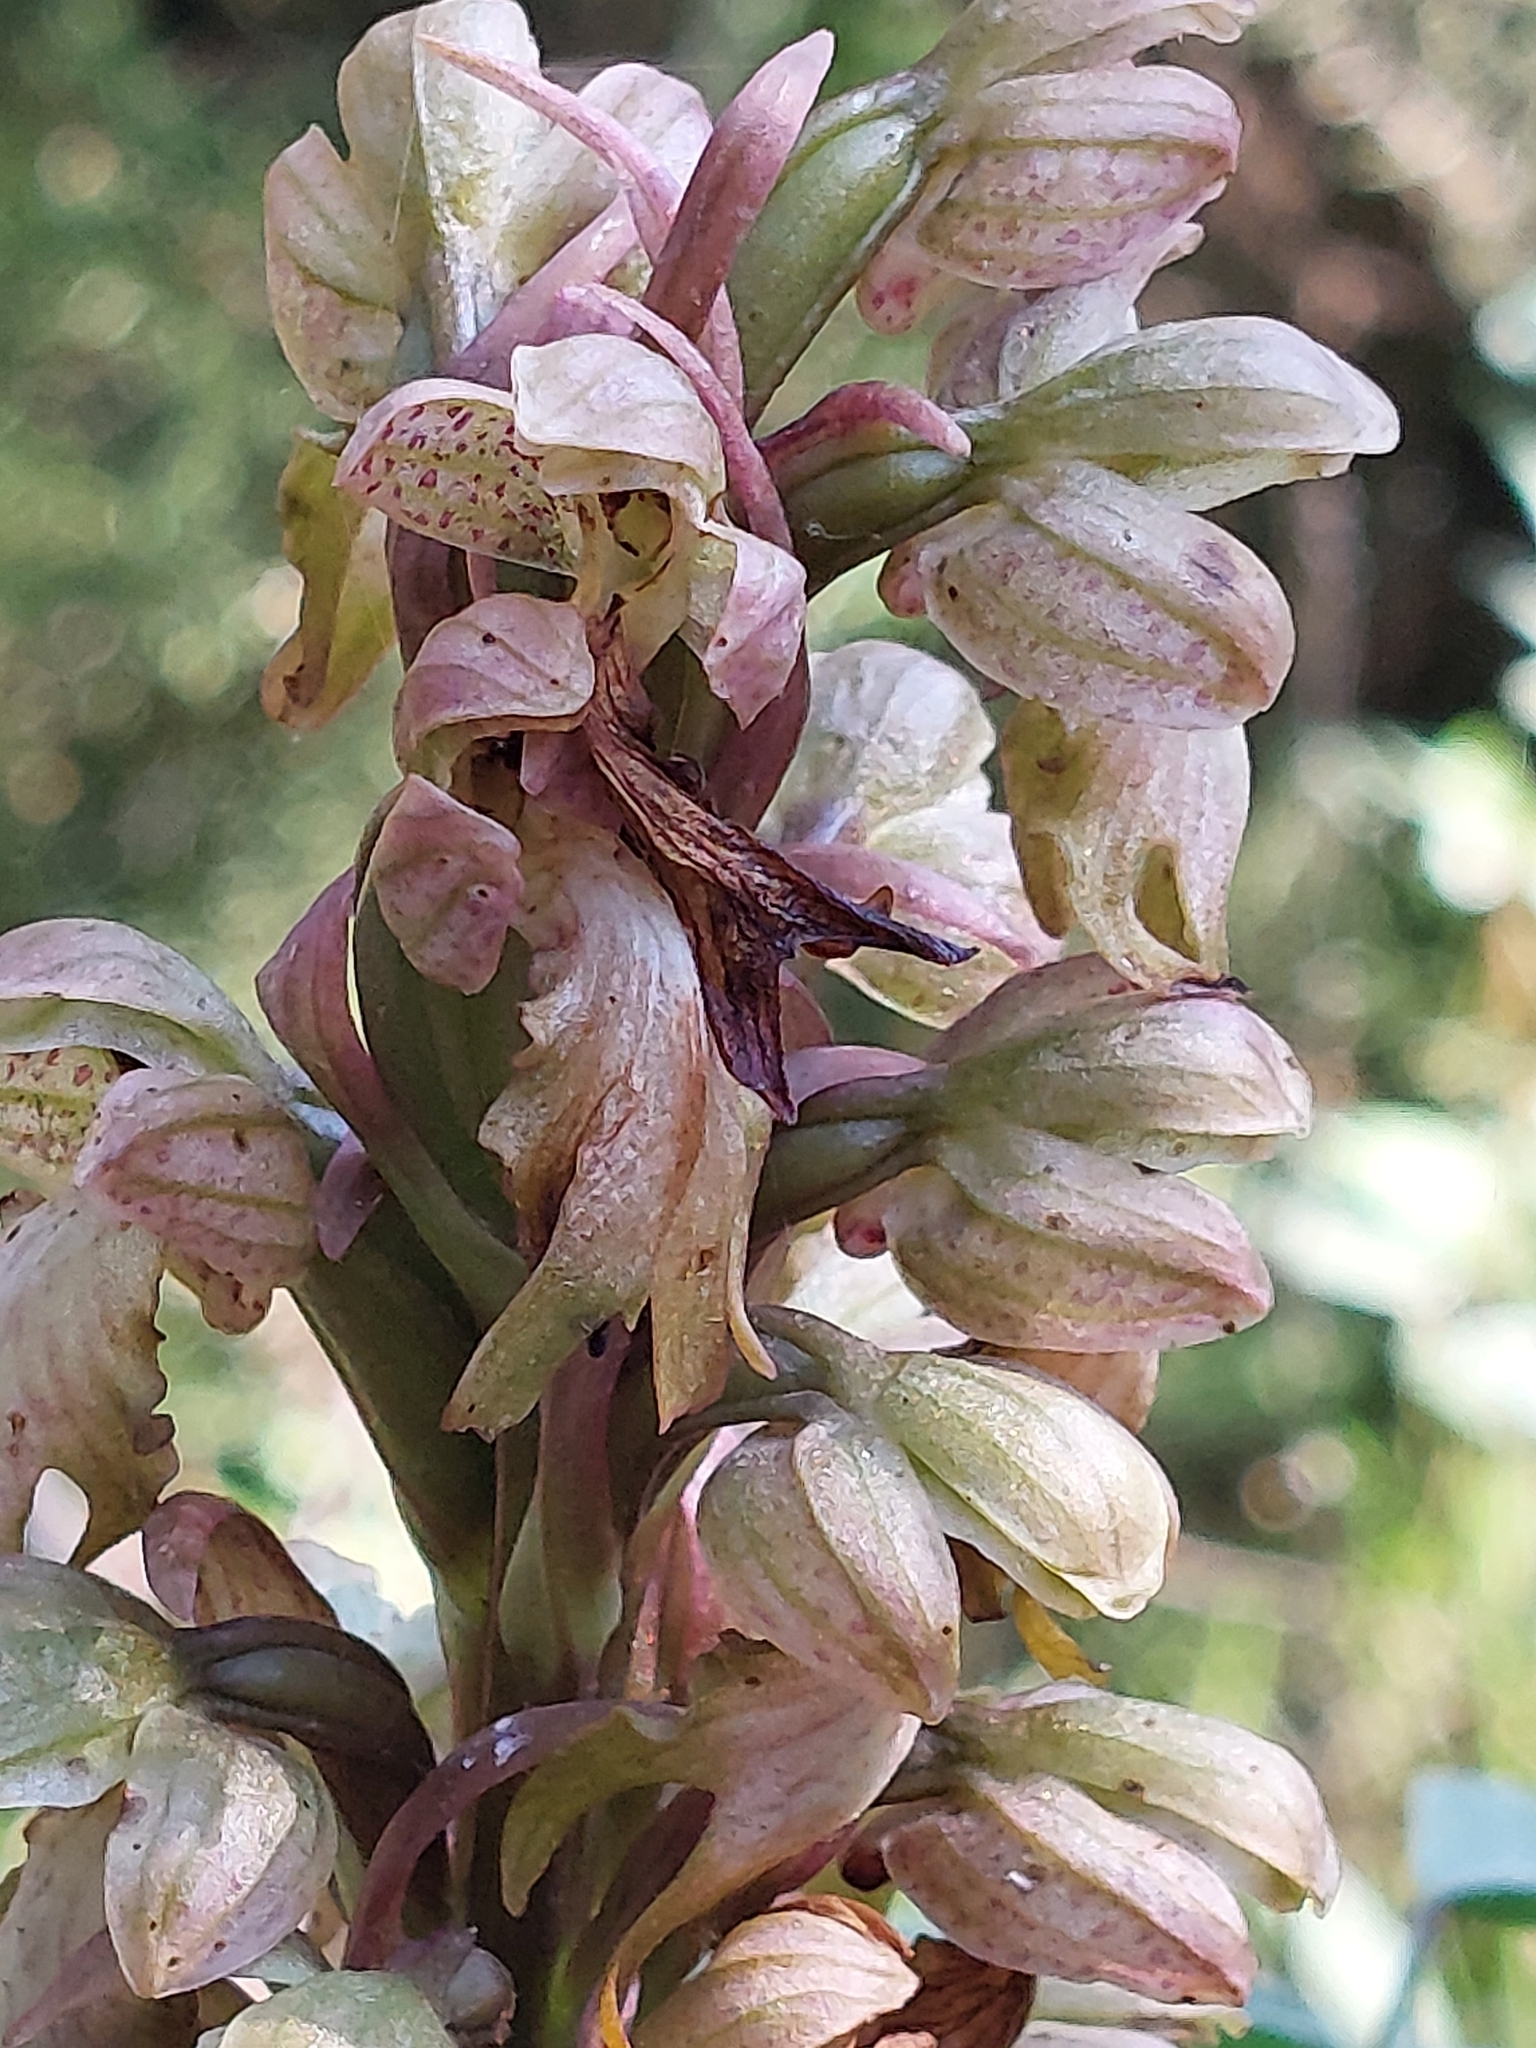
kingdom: Plantae
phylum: Tracheophyta
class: Liliopsida
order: Asparagales
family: Orchidaceae
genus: Himantoglossum
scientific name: Himantoglossum robertianum
